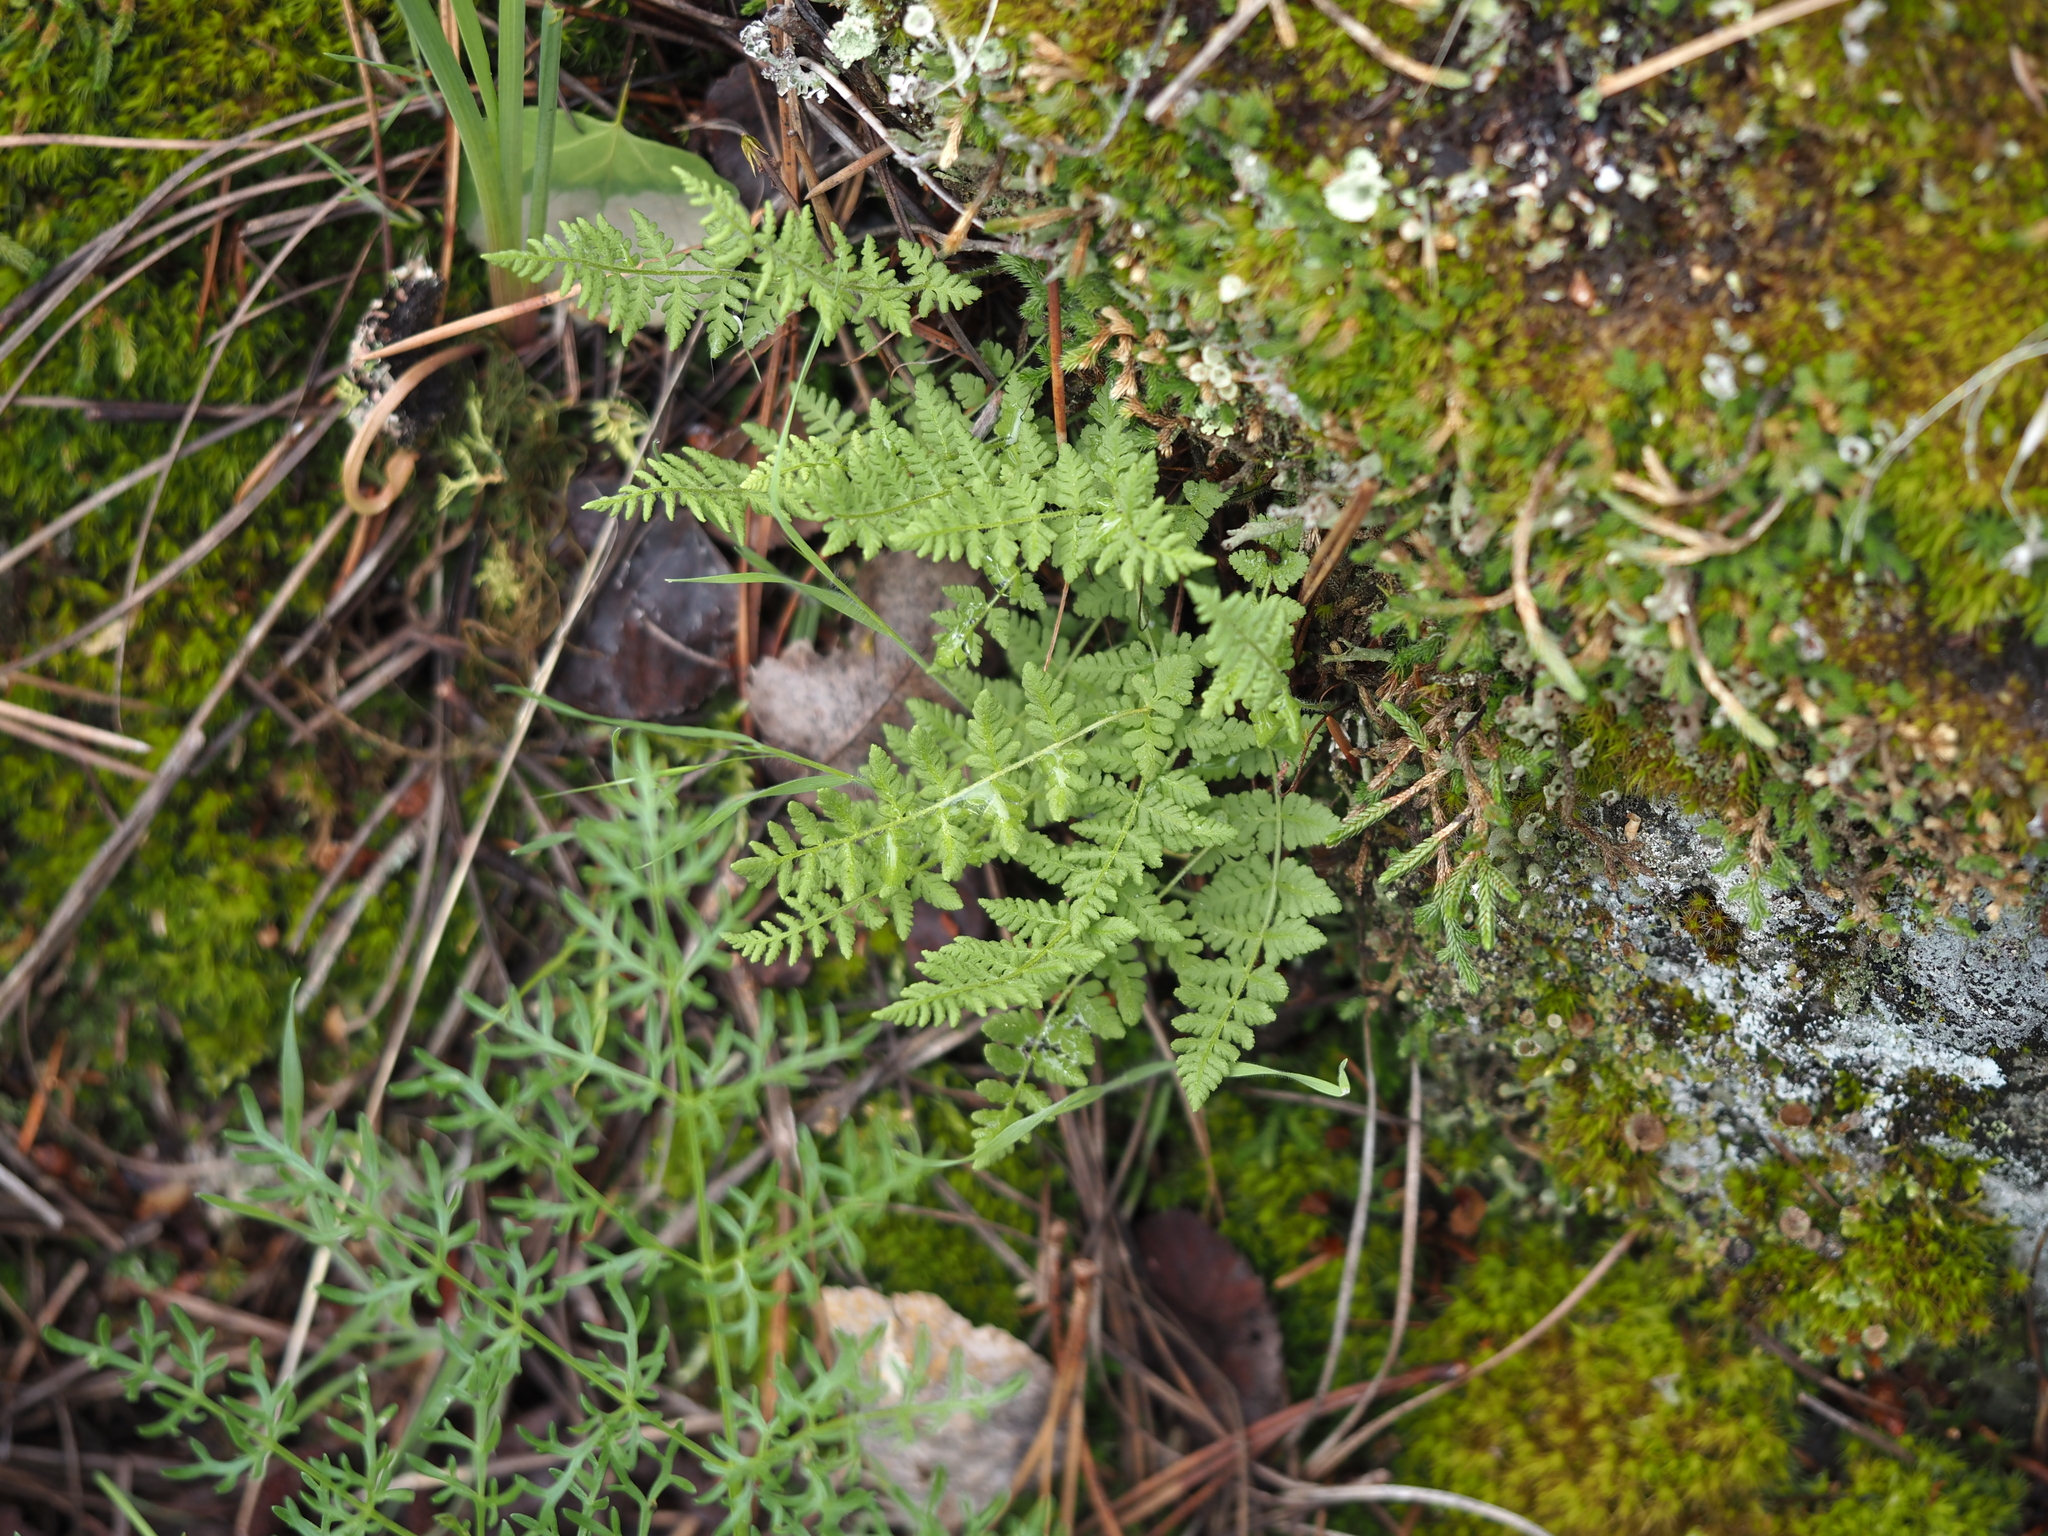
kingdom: Plantae
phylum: Tracheophyta
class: Polypodiopsida
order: Polypodiales
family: Woodsiaceae
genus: Physematium
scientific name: Physematium scopulinum
